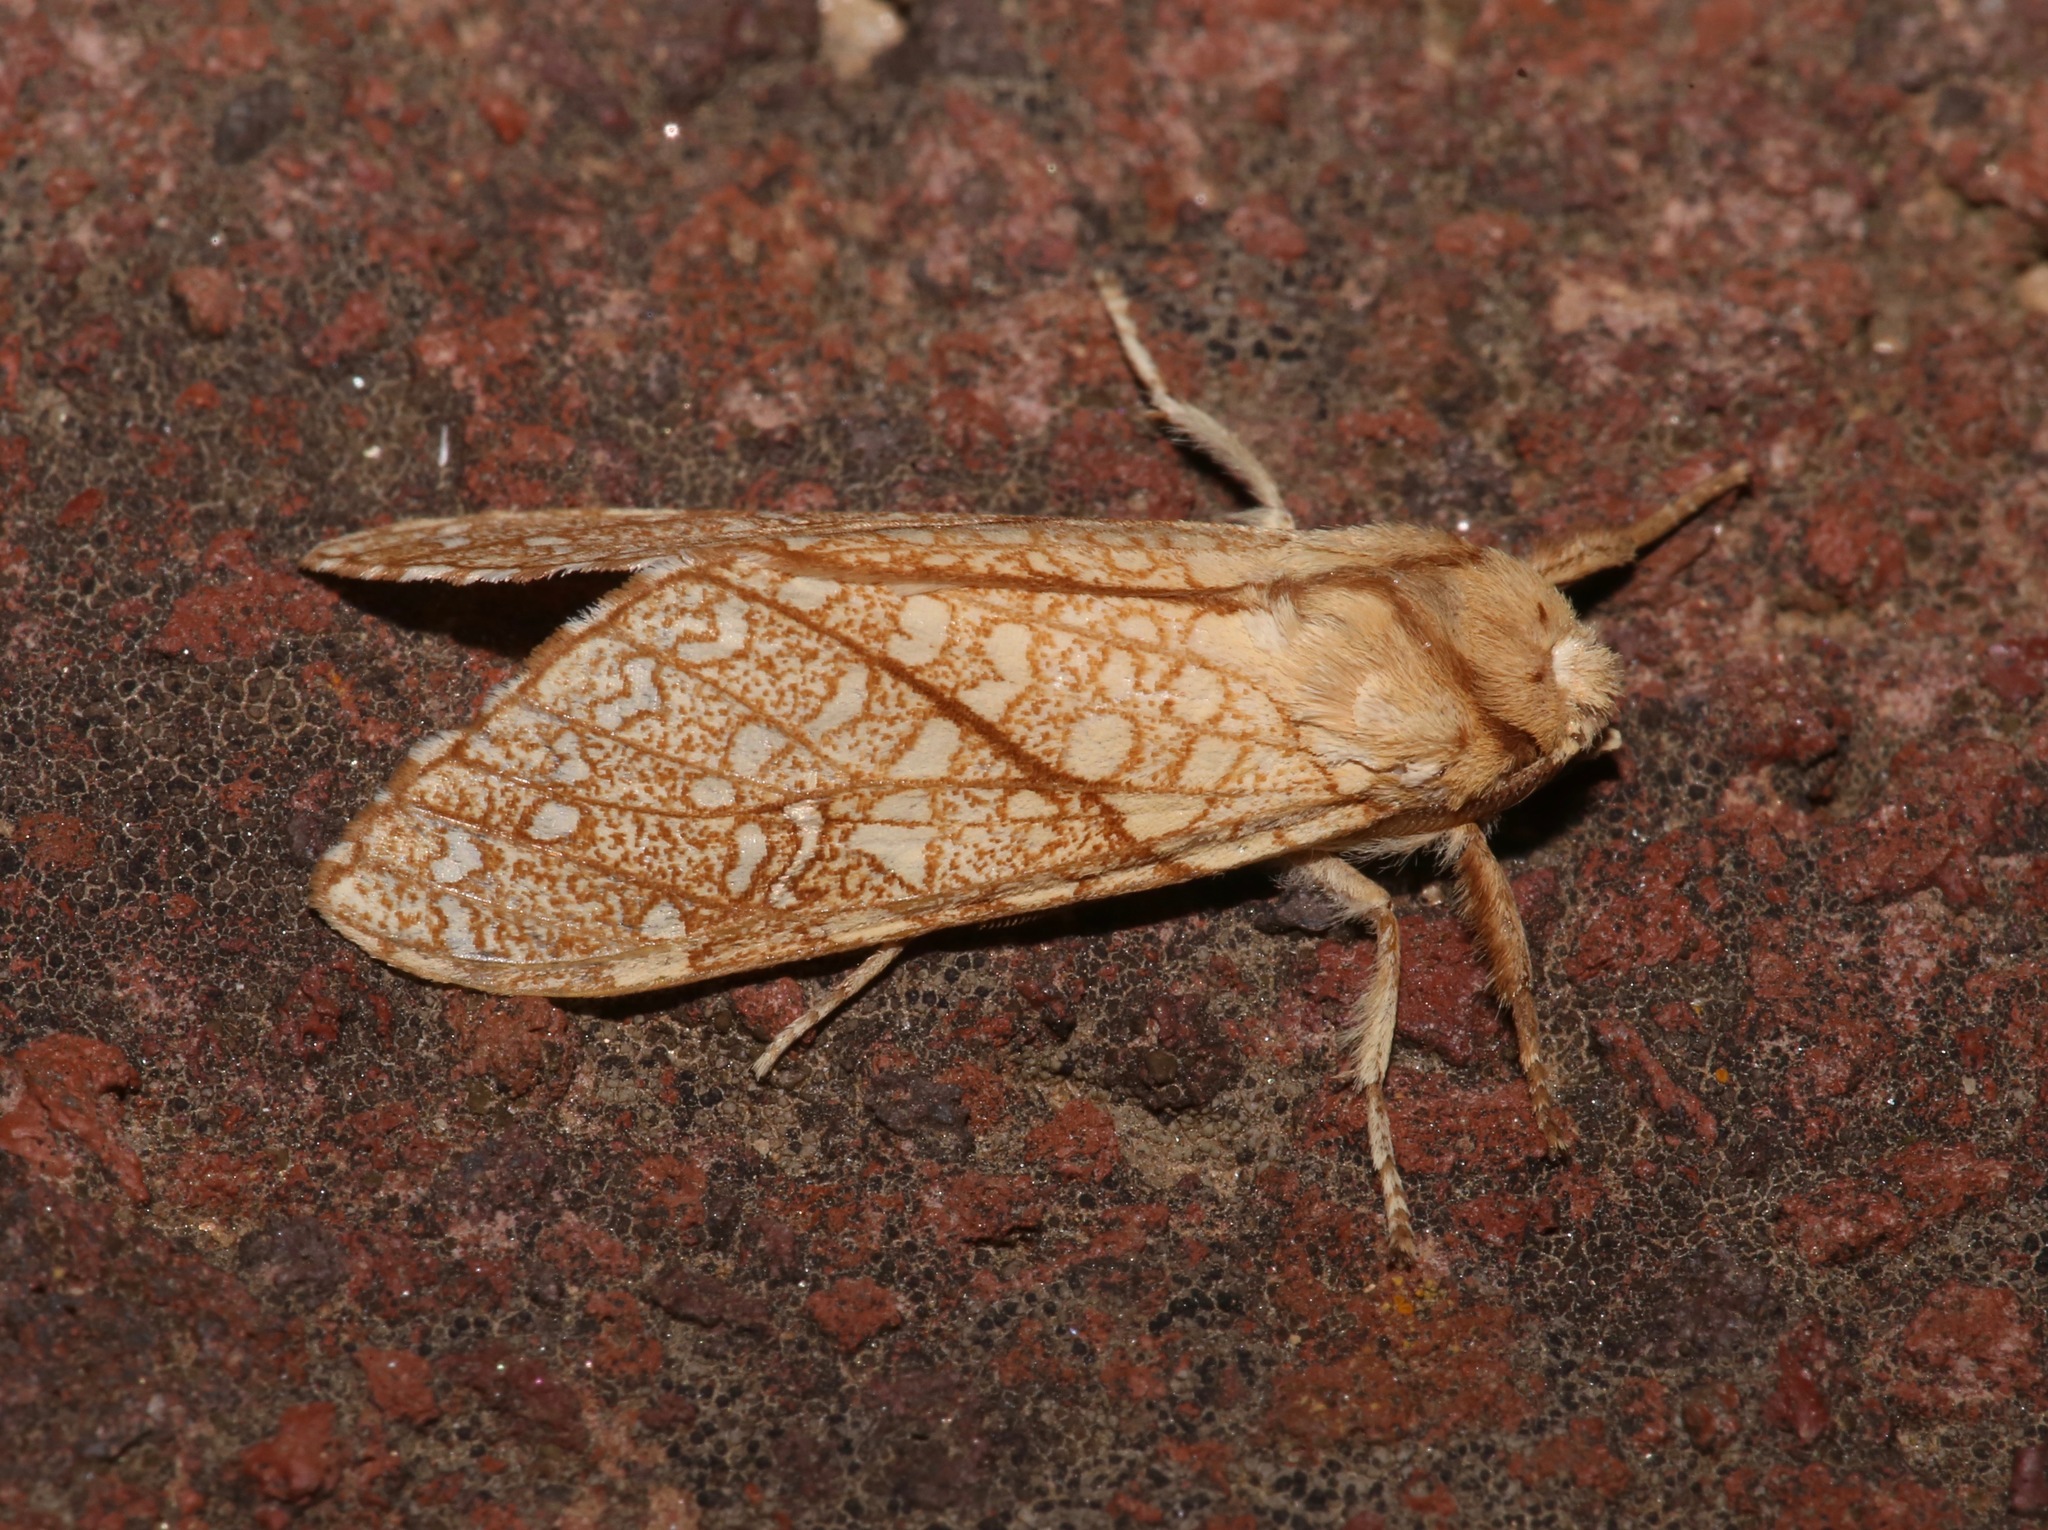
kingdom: Animalia
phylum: Arthropoda
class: Insecta
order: Lepidoptera
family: Erebidae
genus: Lophocampa
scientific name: Lophocampa mixta
